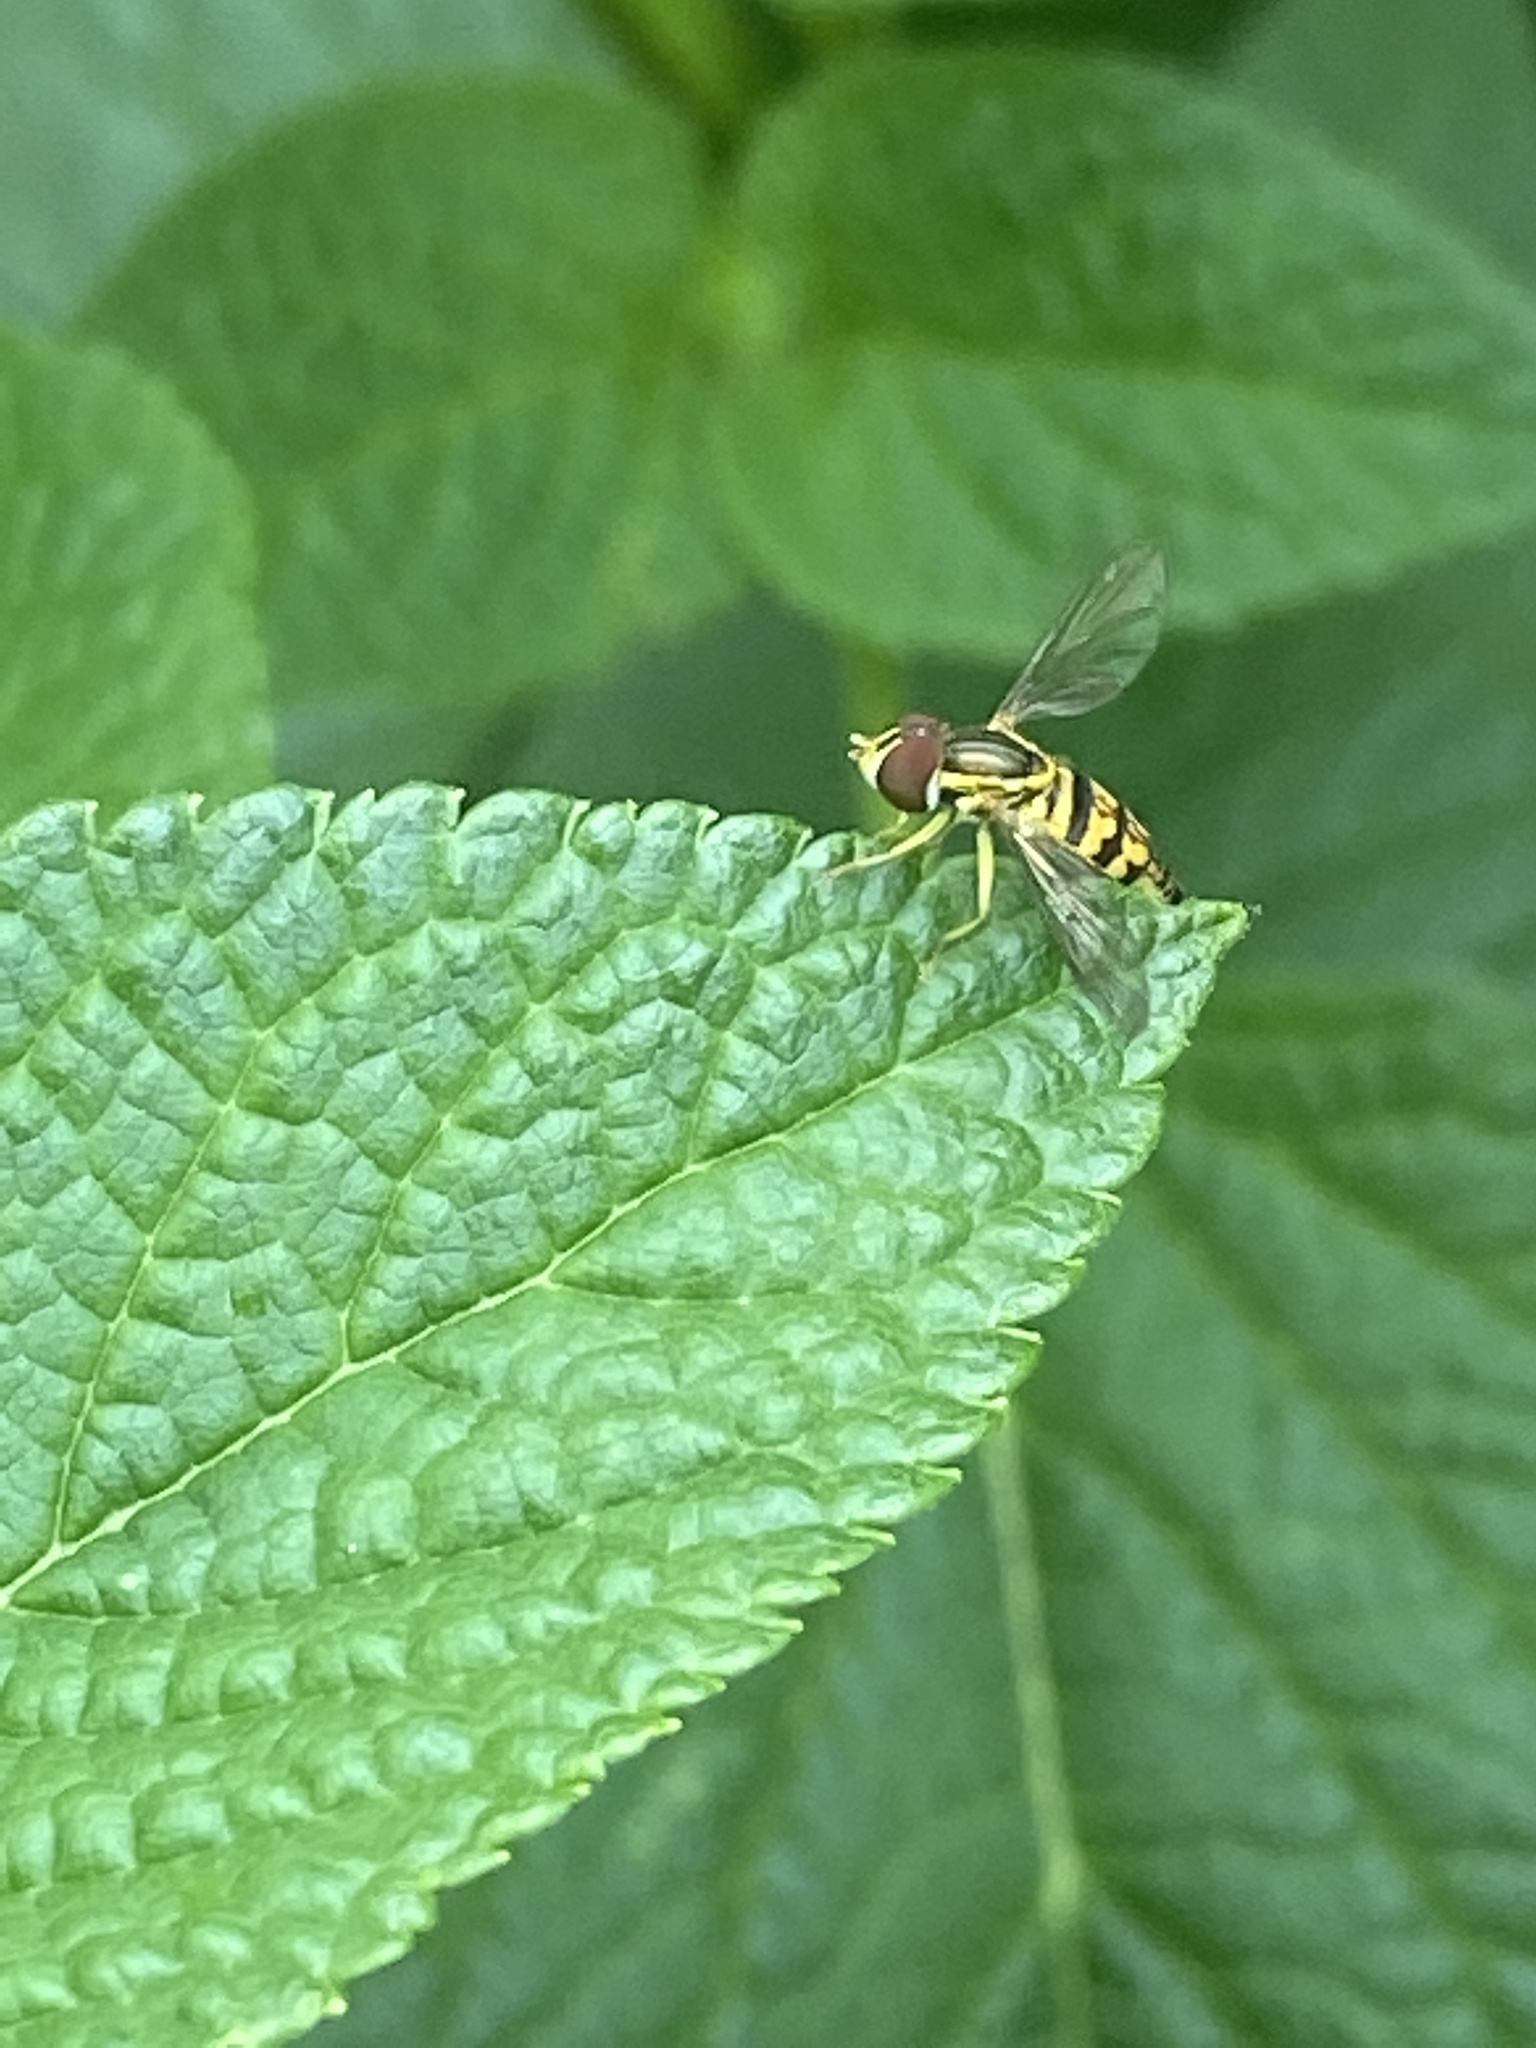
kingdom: Animalia
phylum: Arthropoda
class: Insecta
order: Diptera
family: Syrphidae
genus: Toxomerus
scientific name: Toxomerus geminatus
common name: Eastern calligrapher
